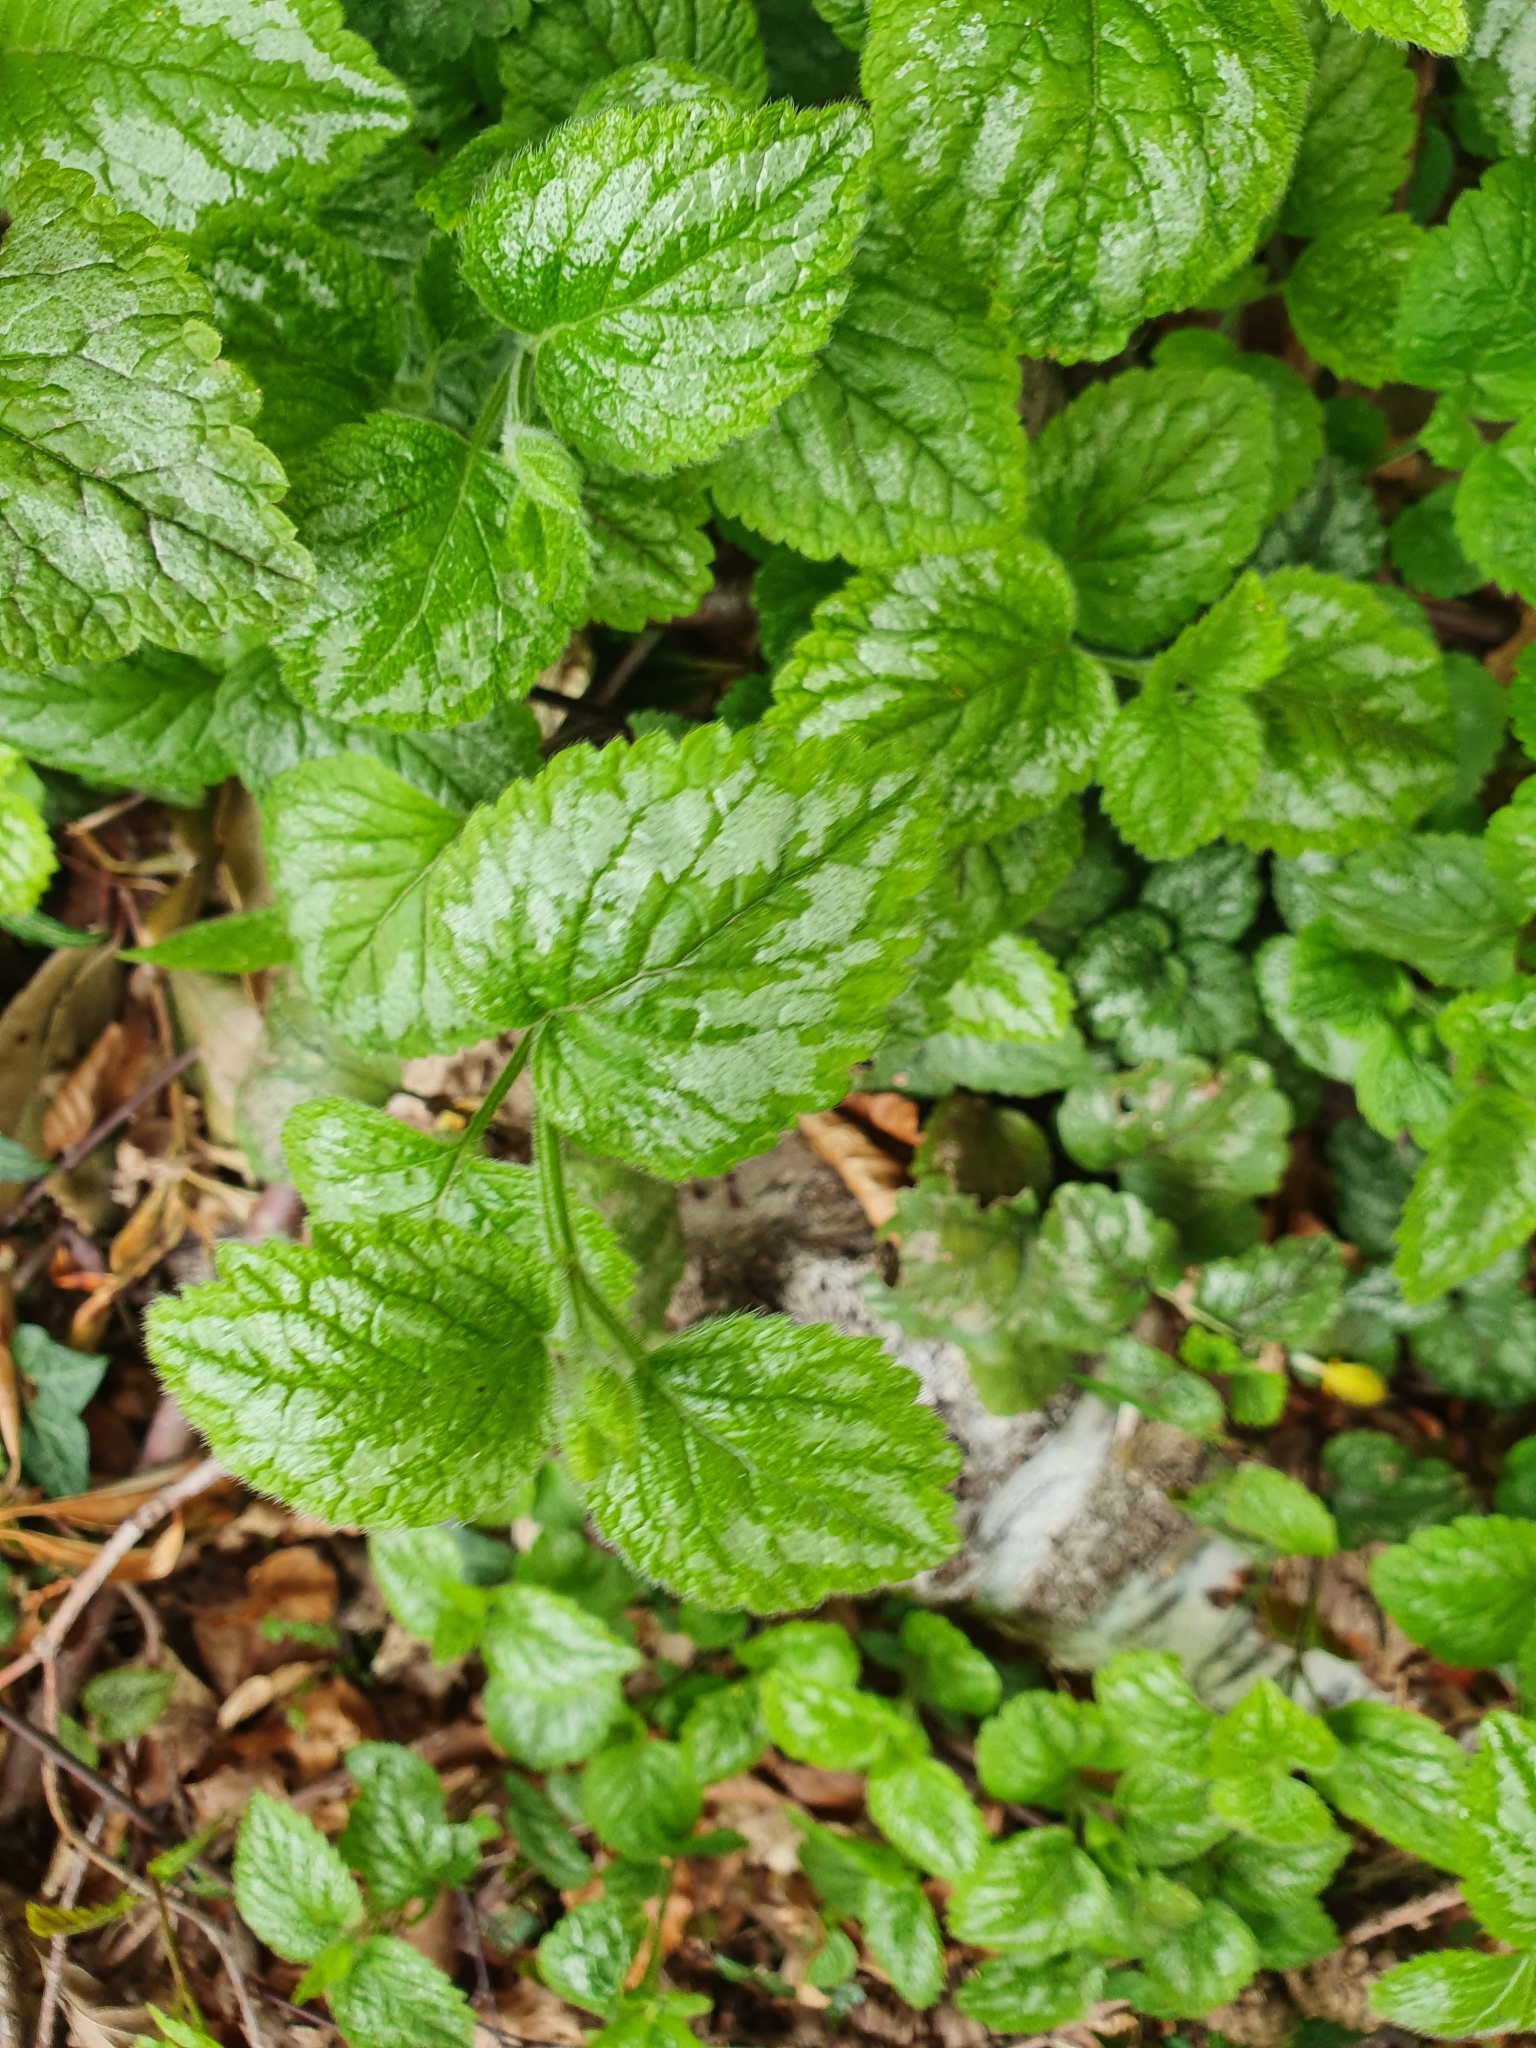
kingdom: Plantae
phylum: Tracheophyta
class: Magnoliopsida
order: Lamiales
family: Lamiaceae
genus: Lamium
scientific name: Lamium galeobdolon
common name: Yellow archangel
